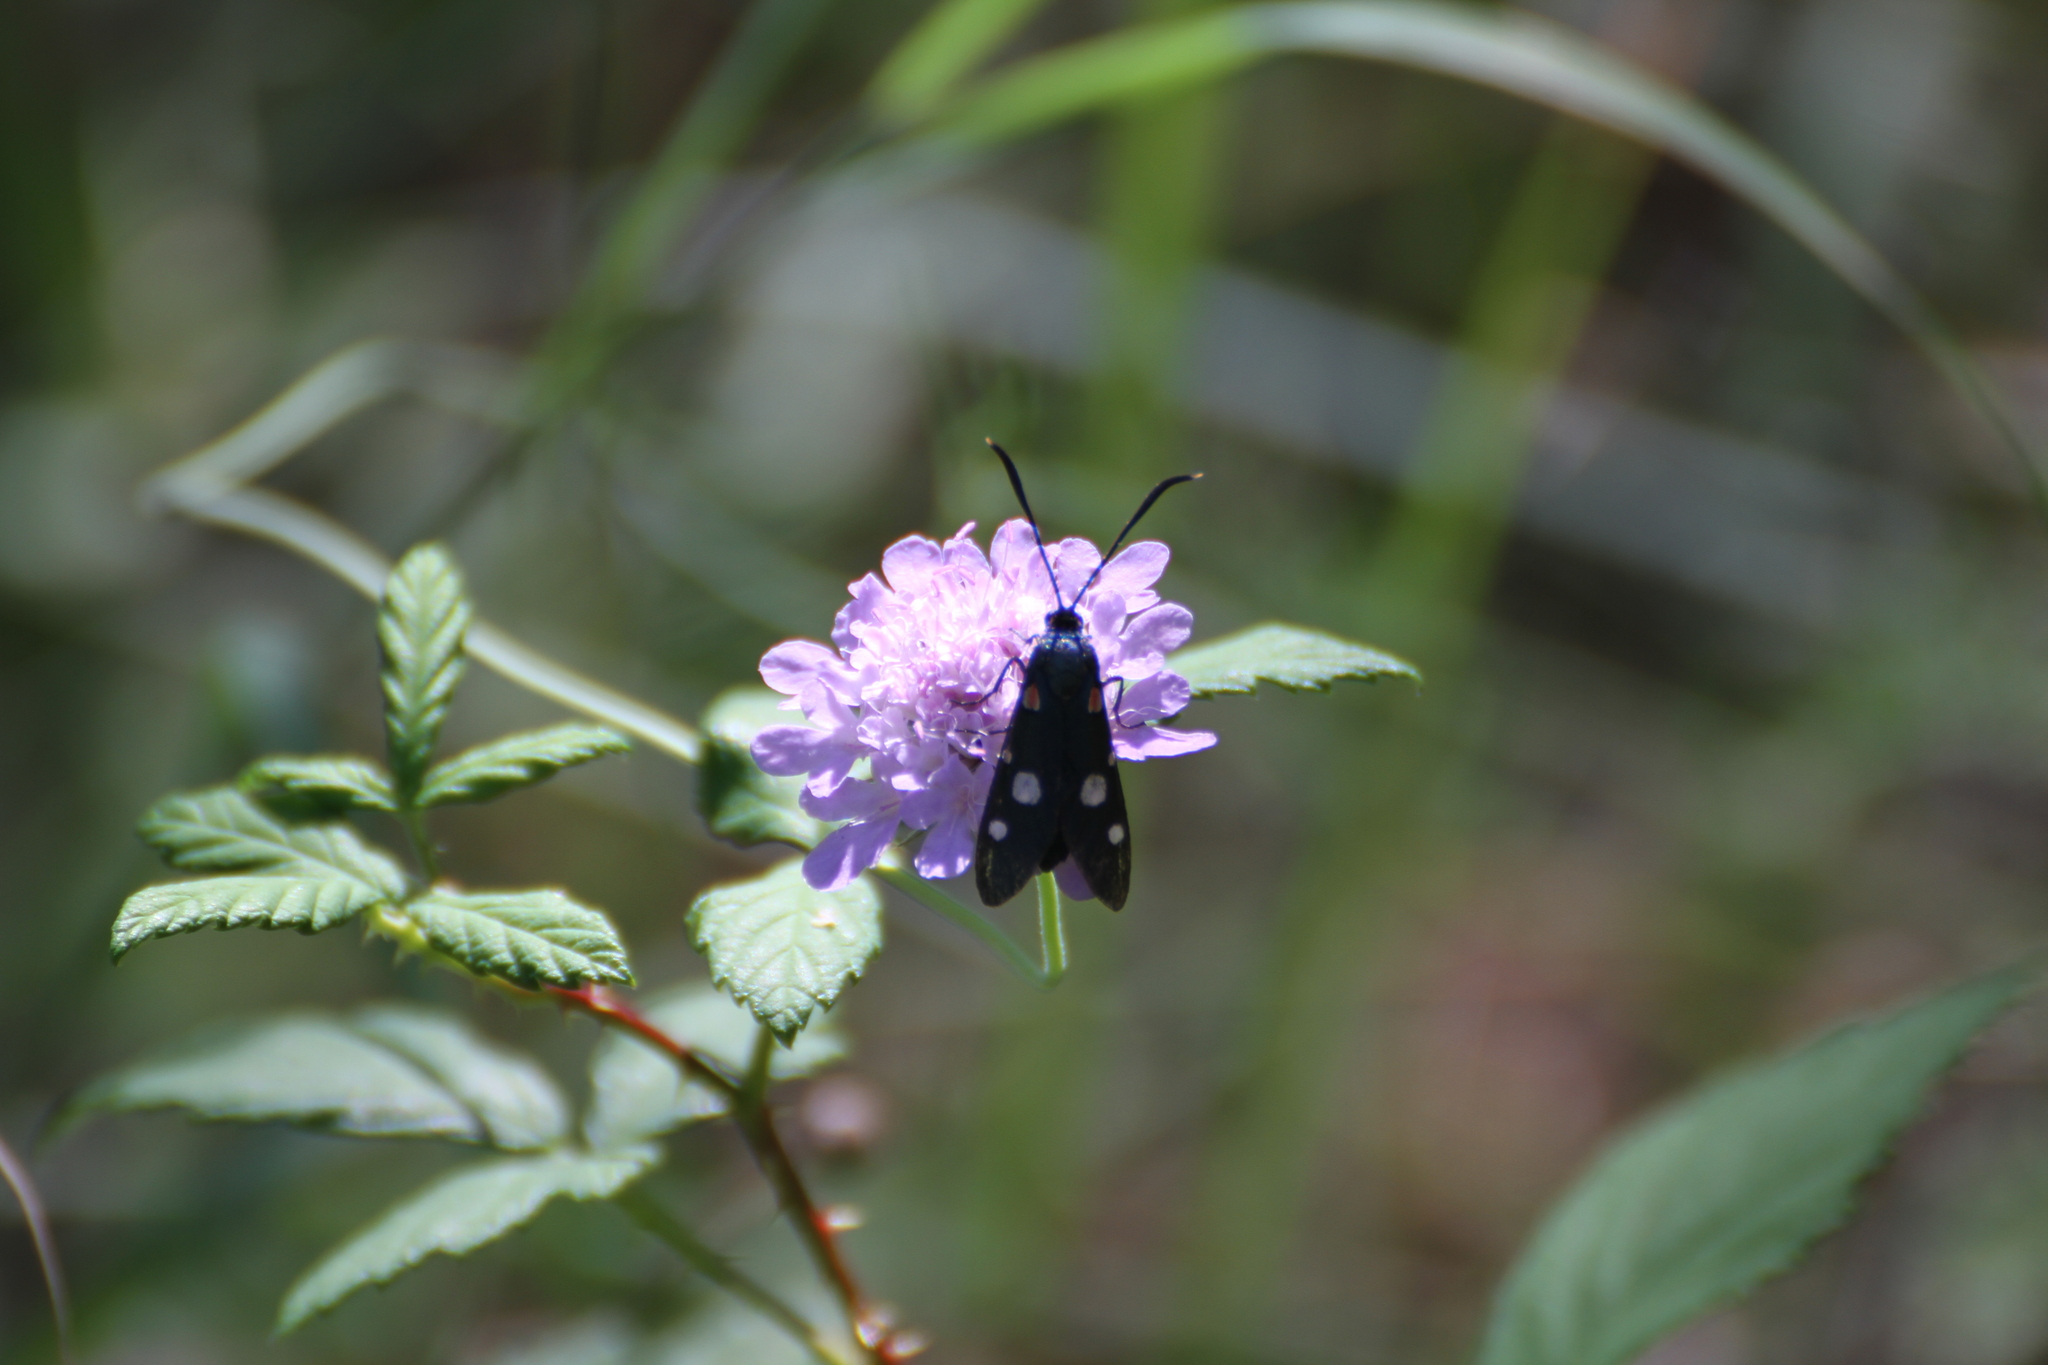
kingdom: Animalia
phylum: Arthropoda
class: Insecta
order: Lepidoptera
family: Zygaenidae
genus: Zygaena
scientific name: Zygaena ephialtes
